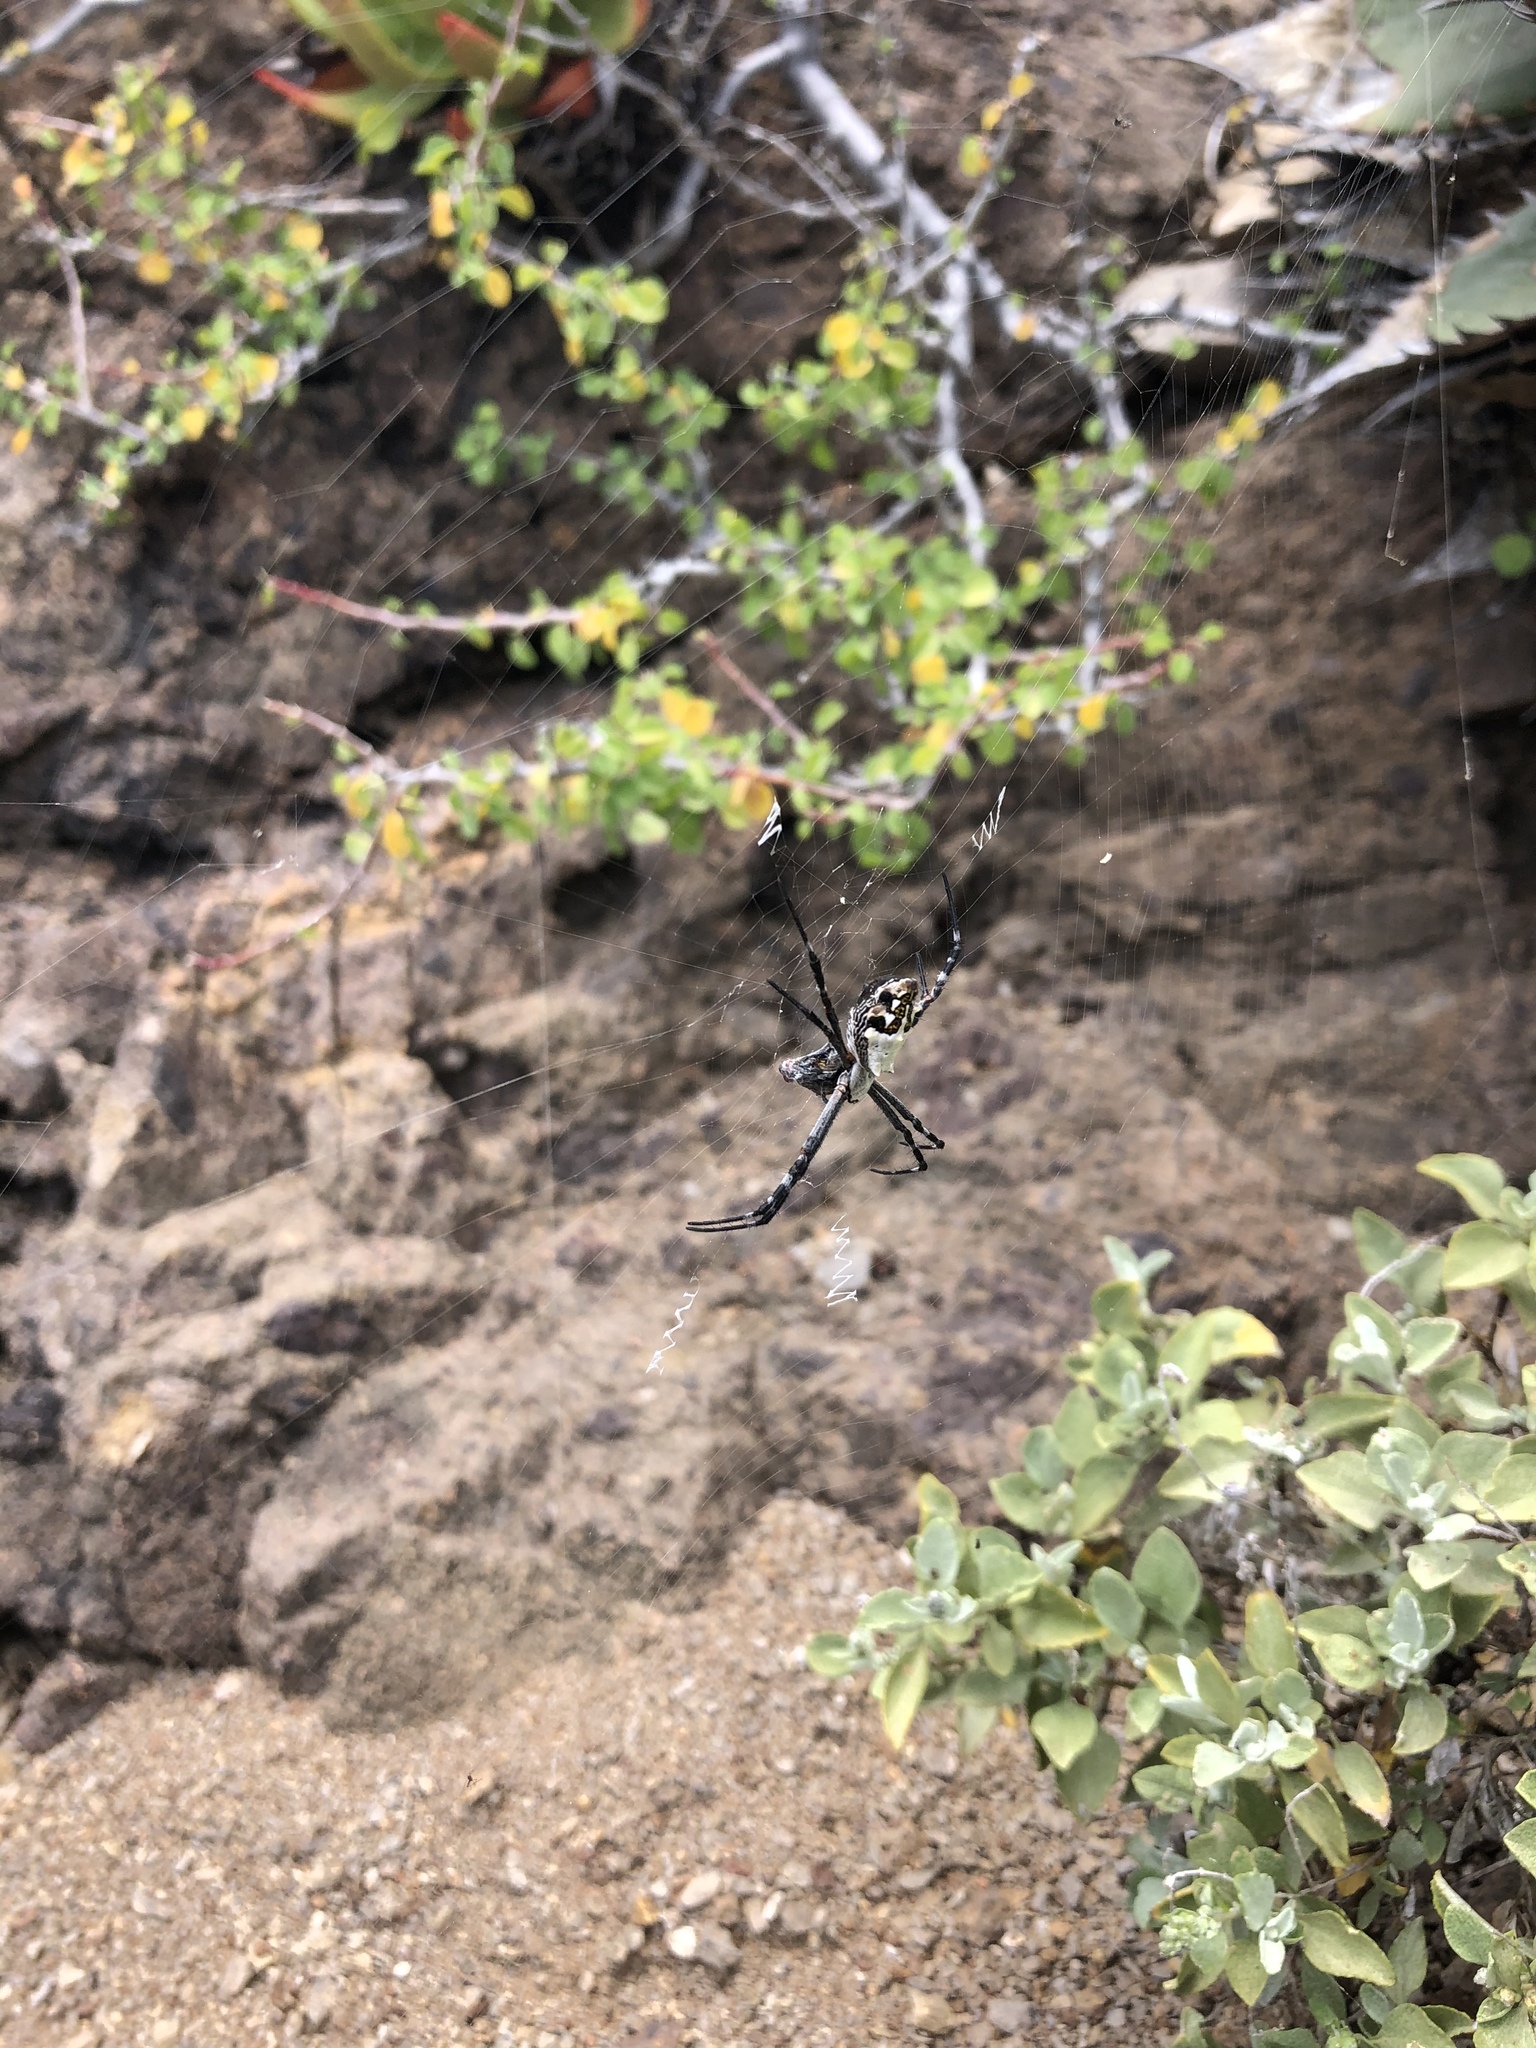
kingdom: Animalia
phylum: Arthropoda
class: Arachnida
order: Araneae
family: Araneidae
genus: Argiope
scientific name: Argiope argentata
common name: Orb weavers
